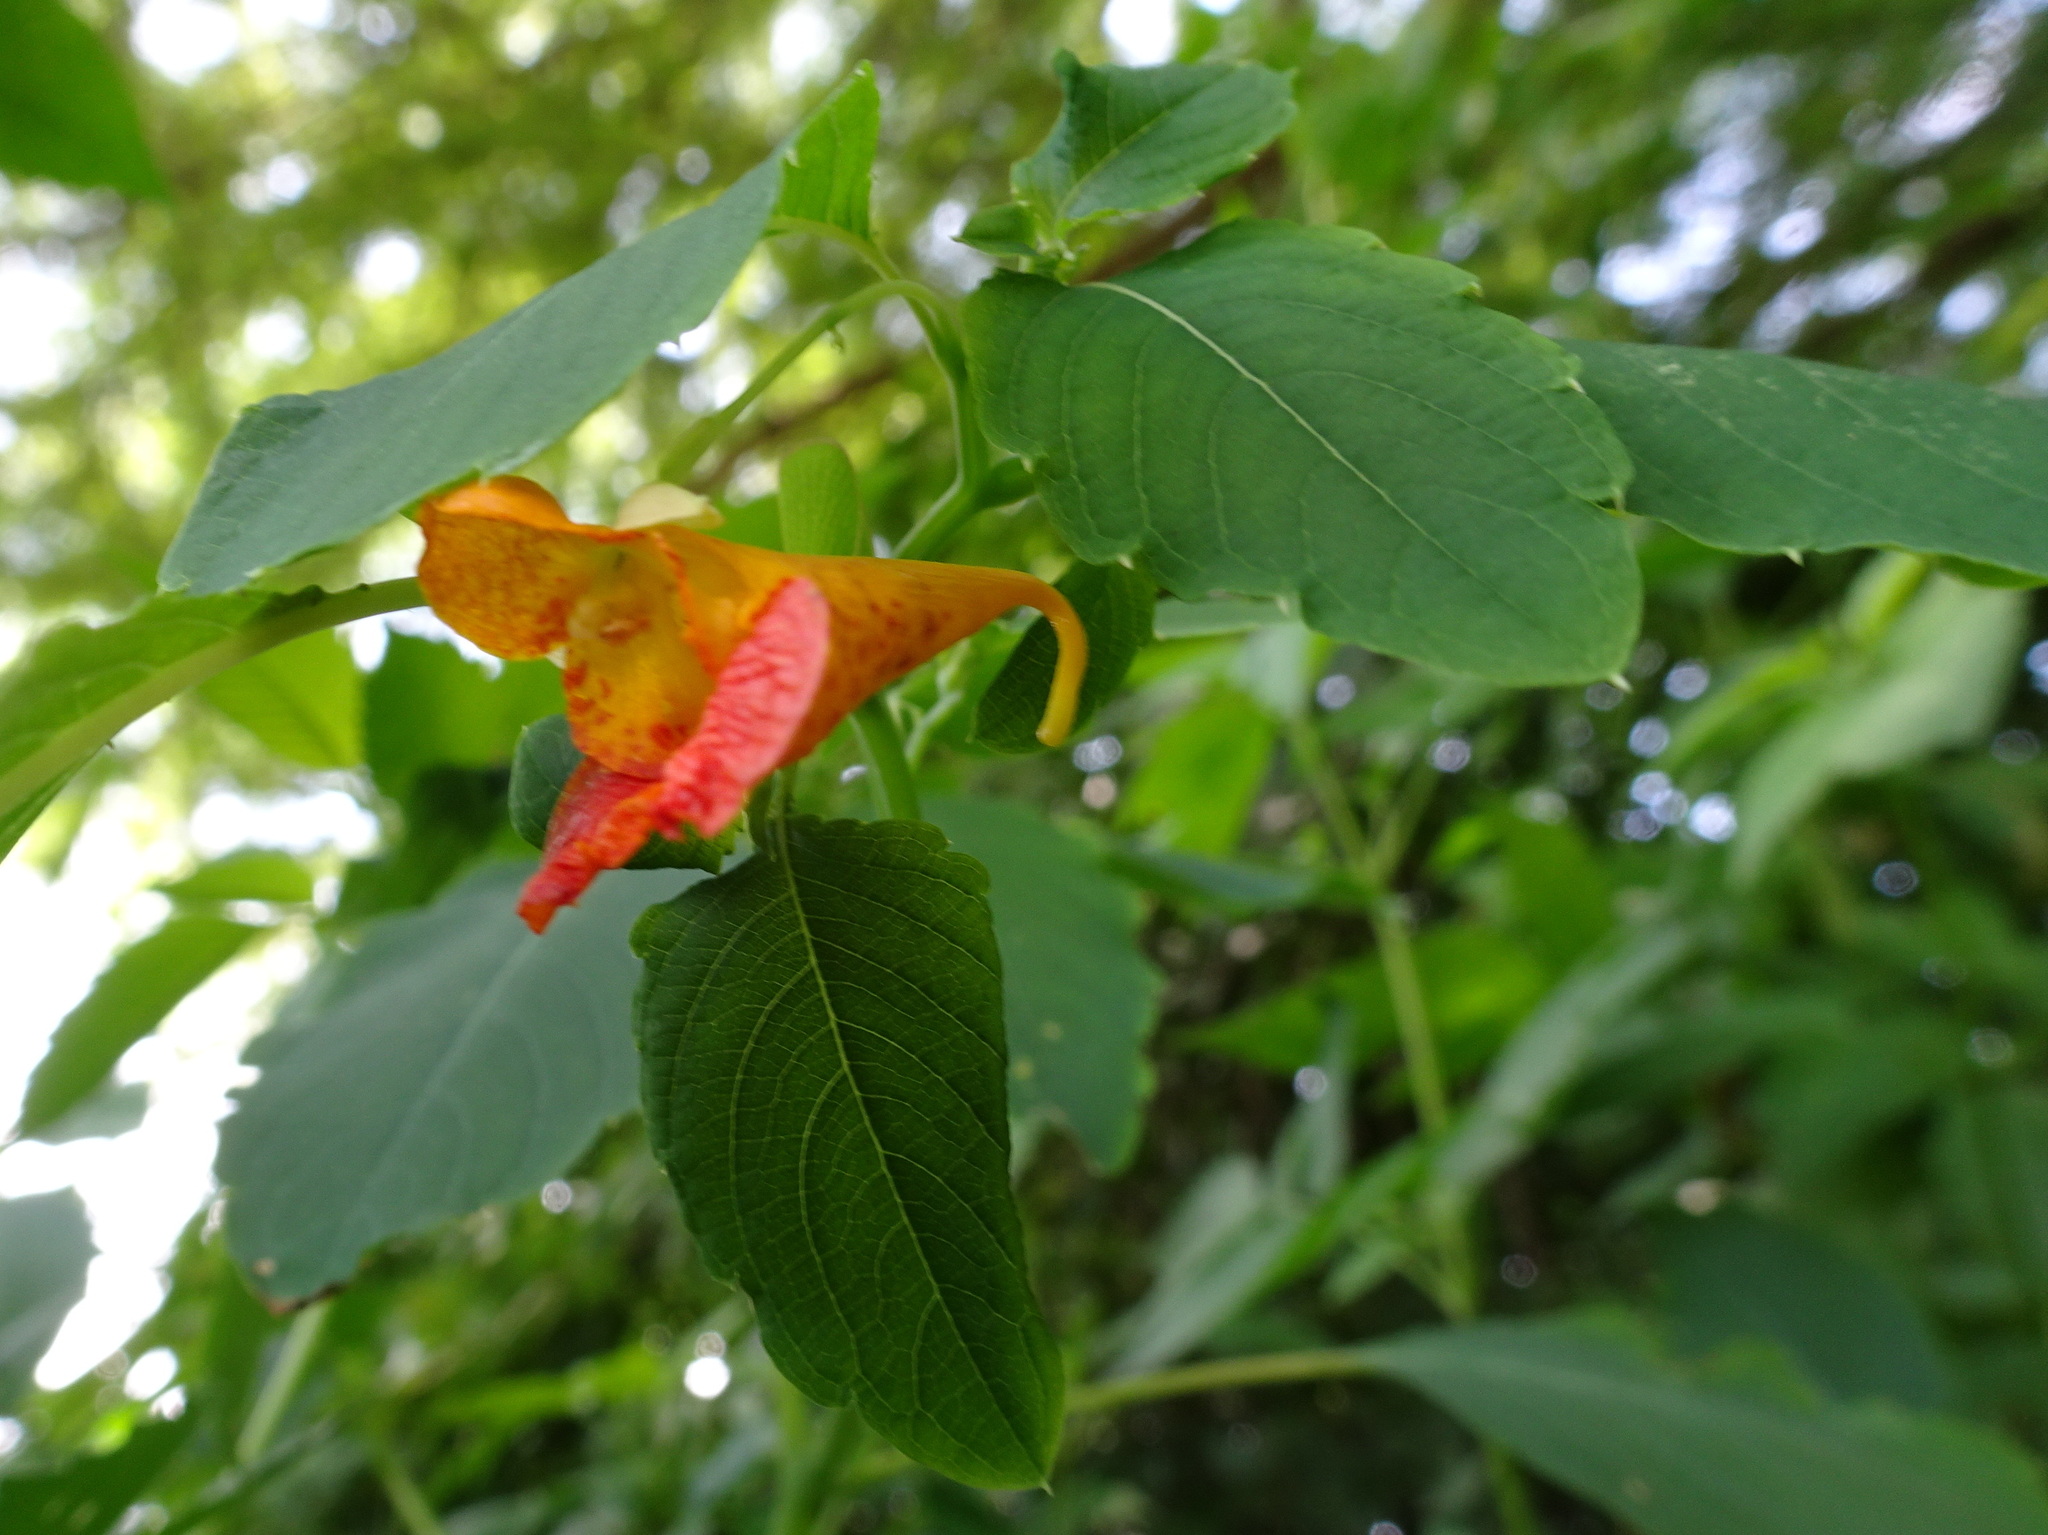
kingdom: Plantae
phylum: Tracheophyta
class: Magnoliopsida
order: Ericales
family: Balsaminaceae
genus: Impatiens
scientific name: Impatiens capensis
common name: Orange balsam
